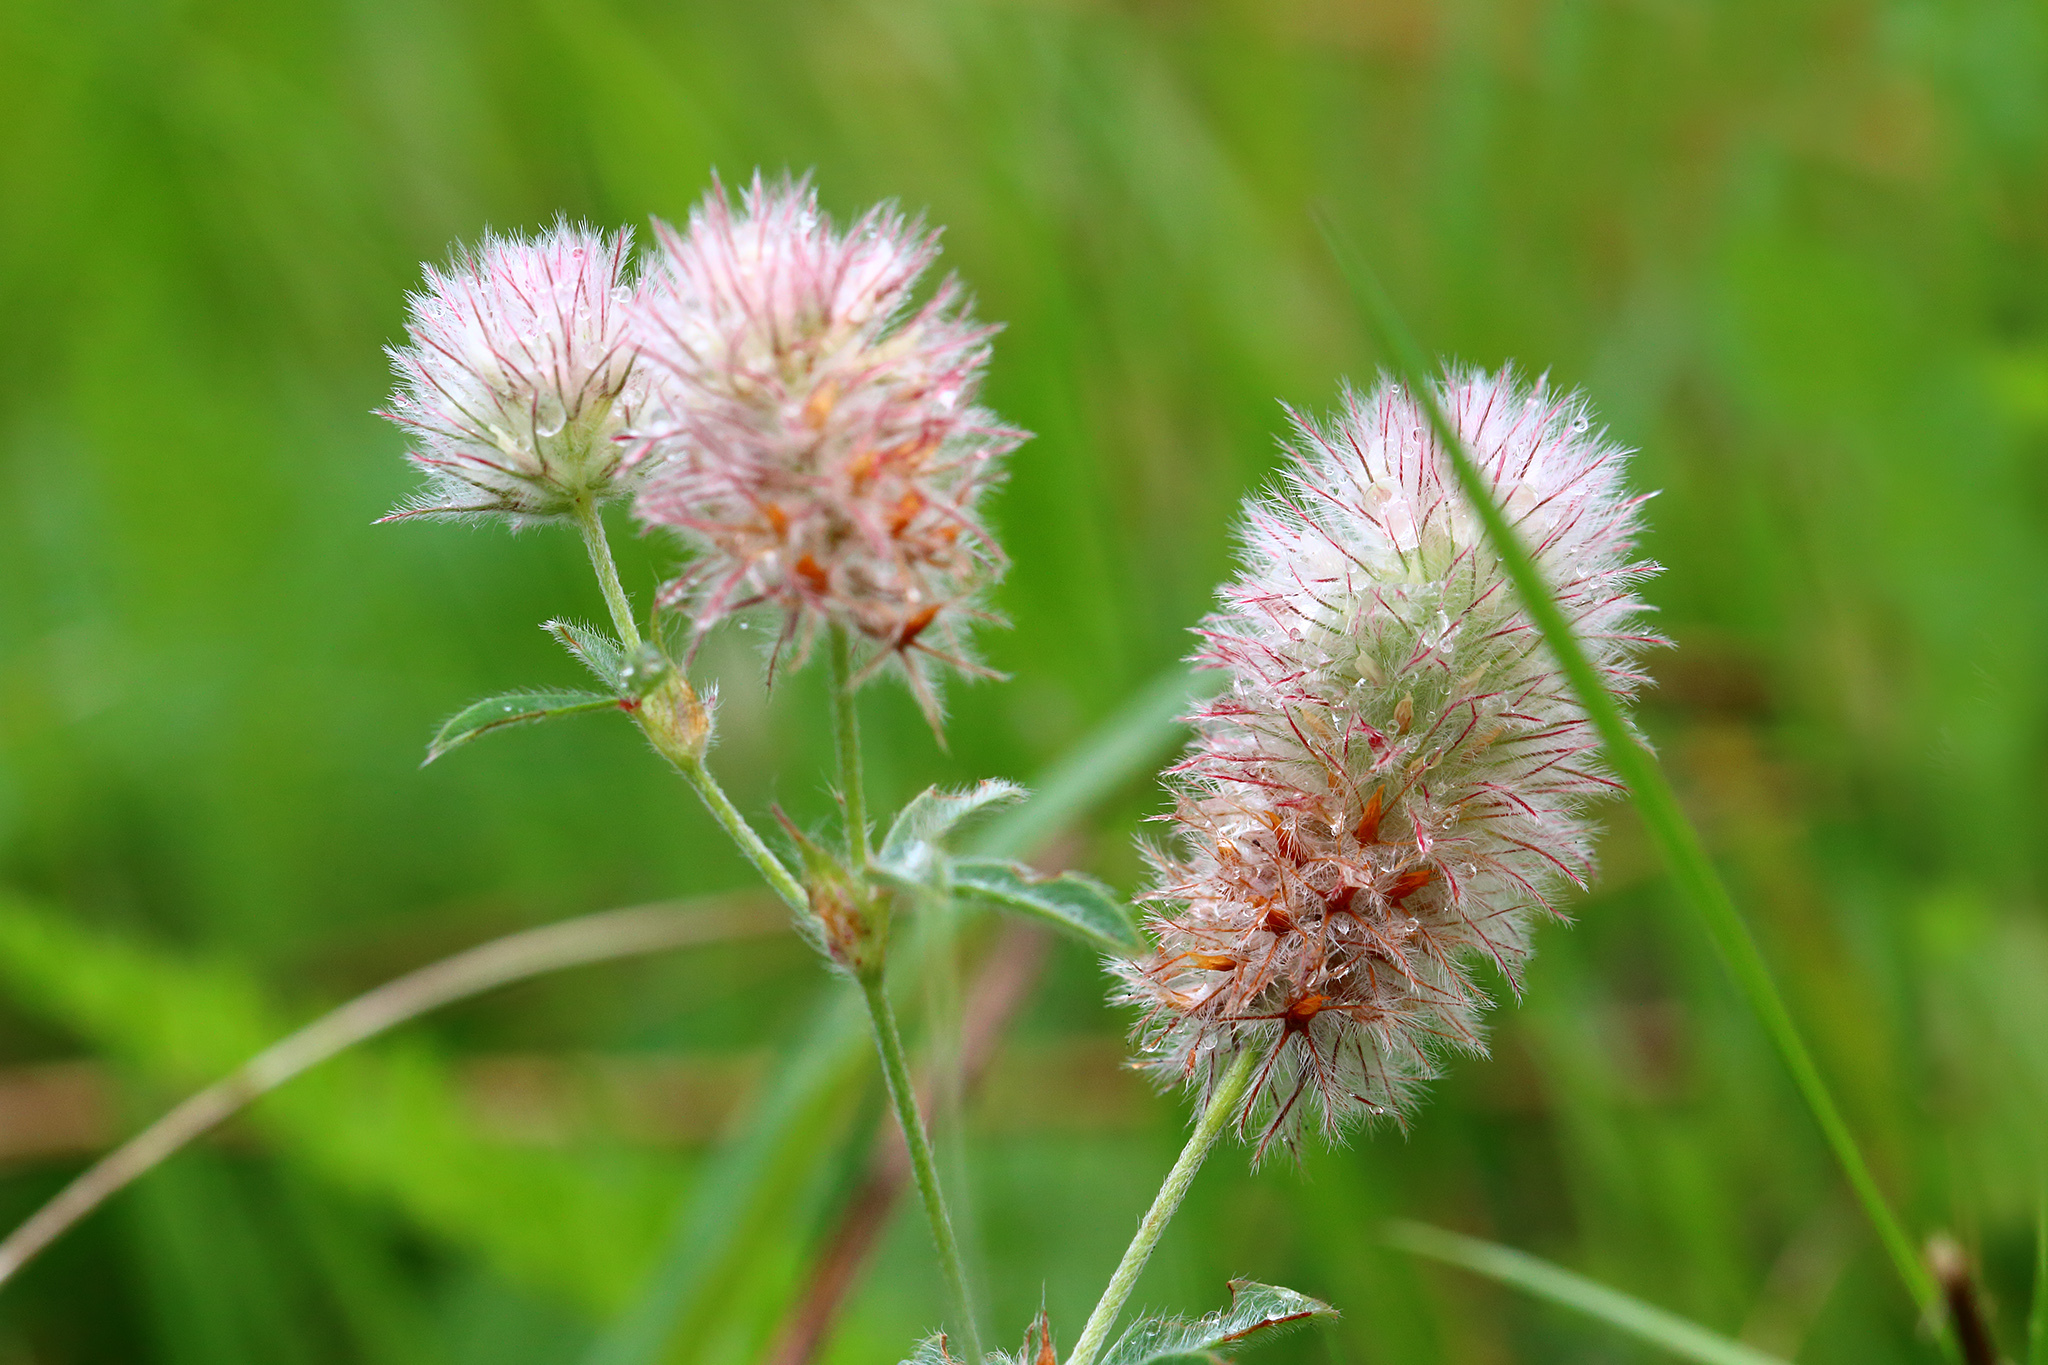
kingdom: Plantae
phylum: Tracheophyta
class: Magnoliopsida
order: Fabales
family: Fabaceae
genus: Trifolium
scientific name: Trifolium arvense
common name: Hare's-foot clover
